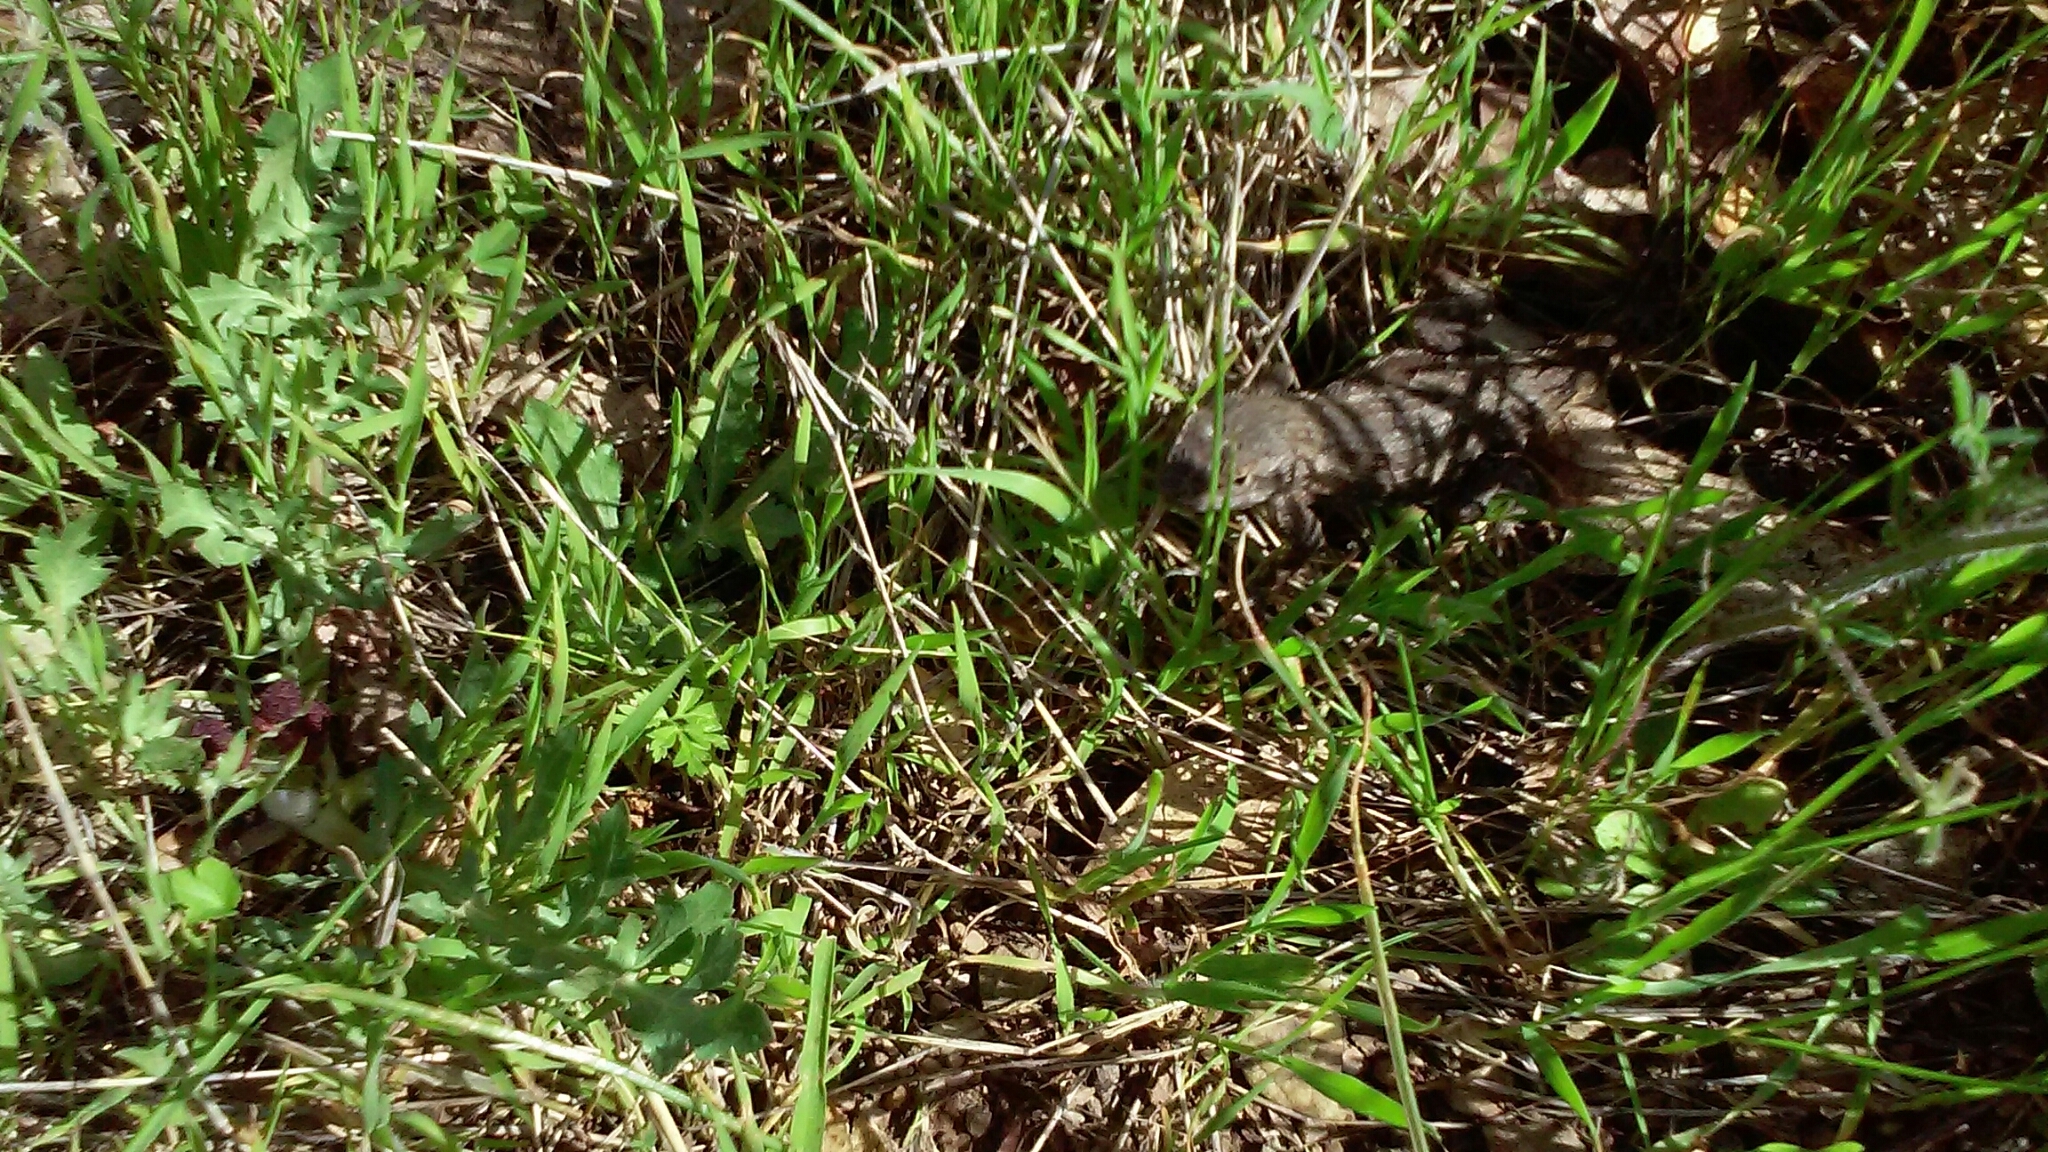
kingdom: Animalia
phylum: Chordata
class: Squamata
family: Phrynosomatidae
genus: Sceloporus
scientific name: Sceloporus occidentalis
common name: Western fence lizard
